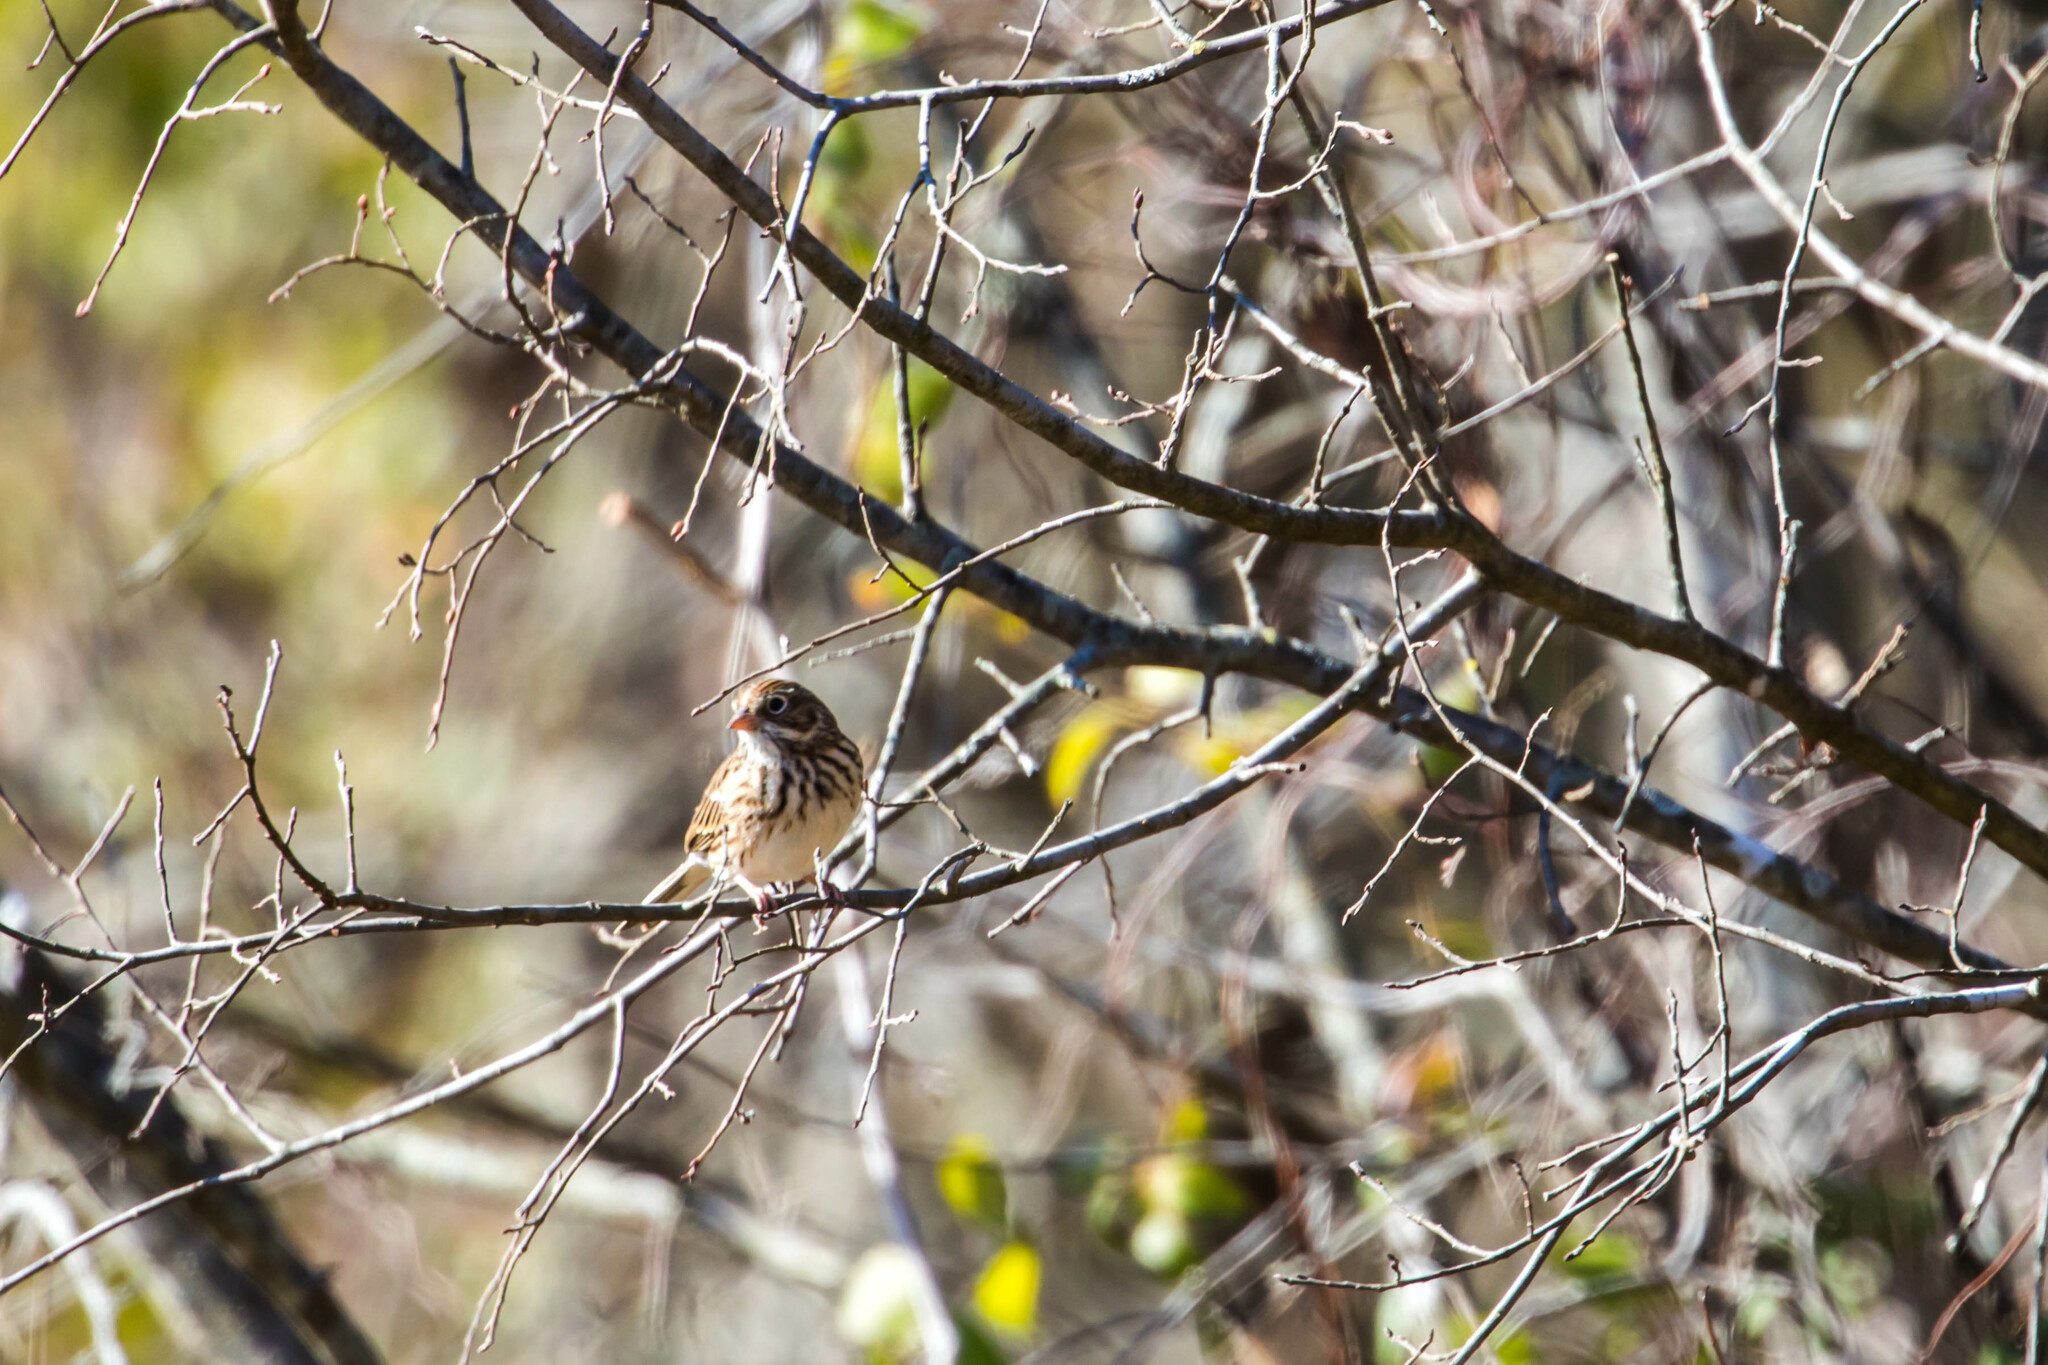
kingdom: Animalia
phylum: Chordata
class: Aves
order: Passeriformes
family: Passerellidae
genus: Pooecetes
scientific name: Pooecetes gramineus
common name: Vesper sparrow
